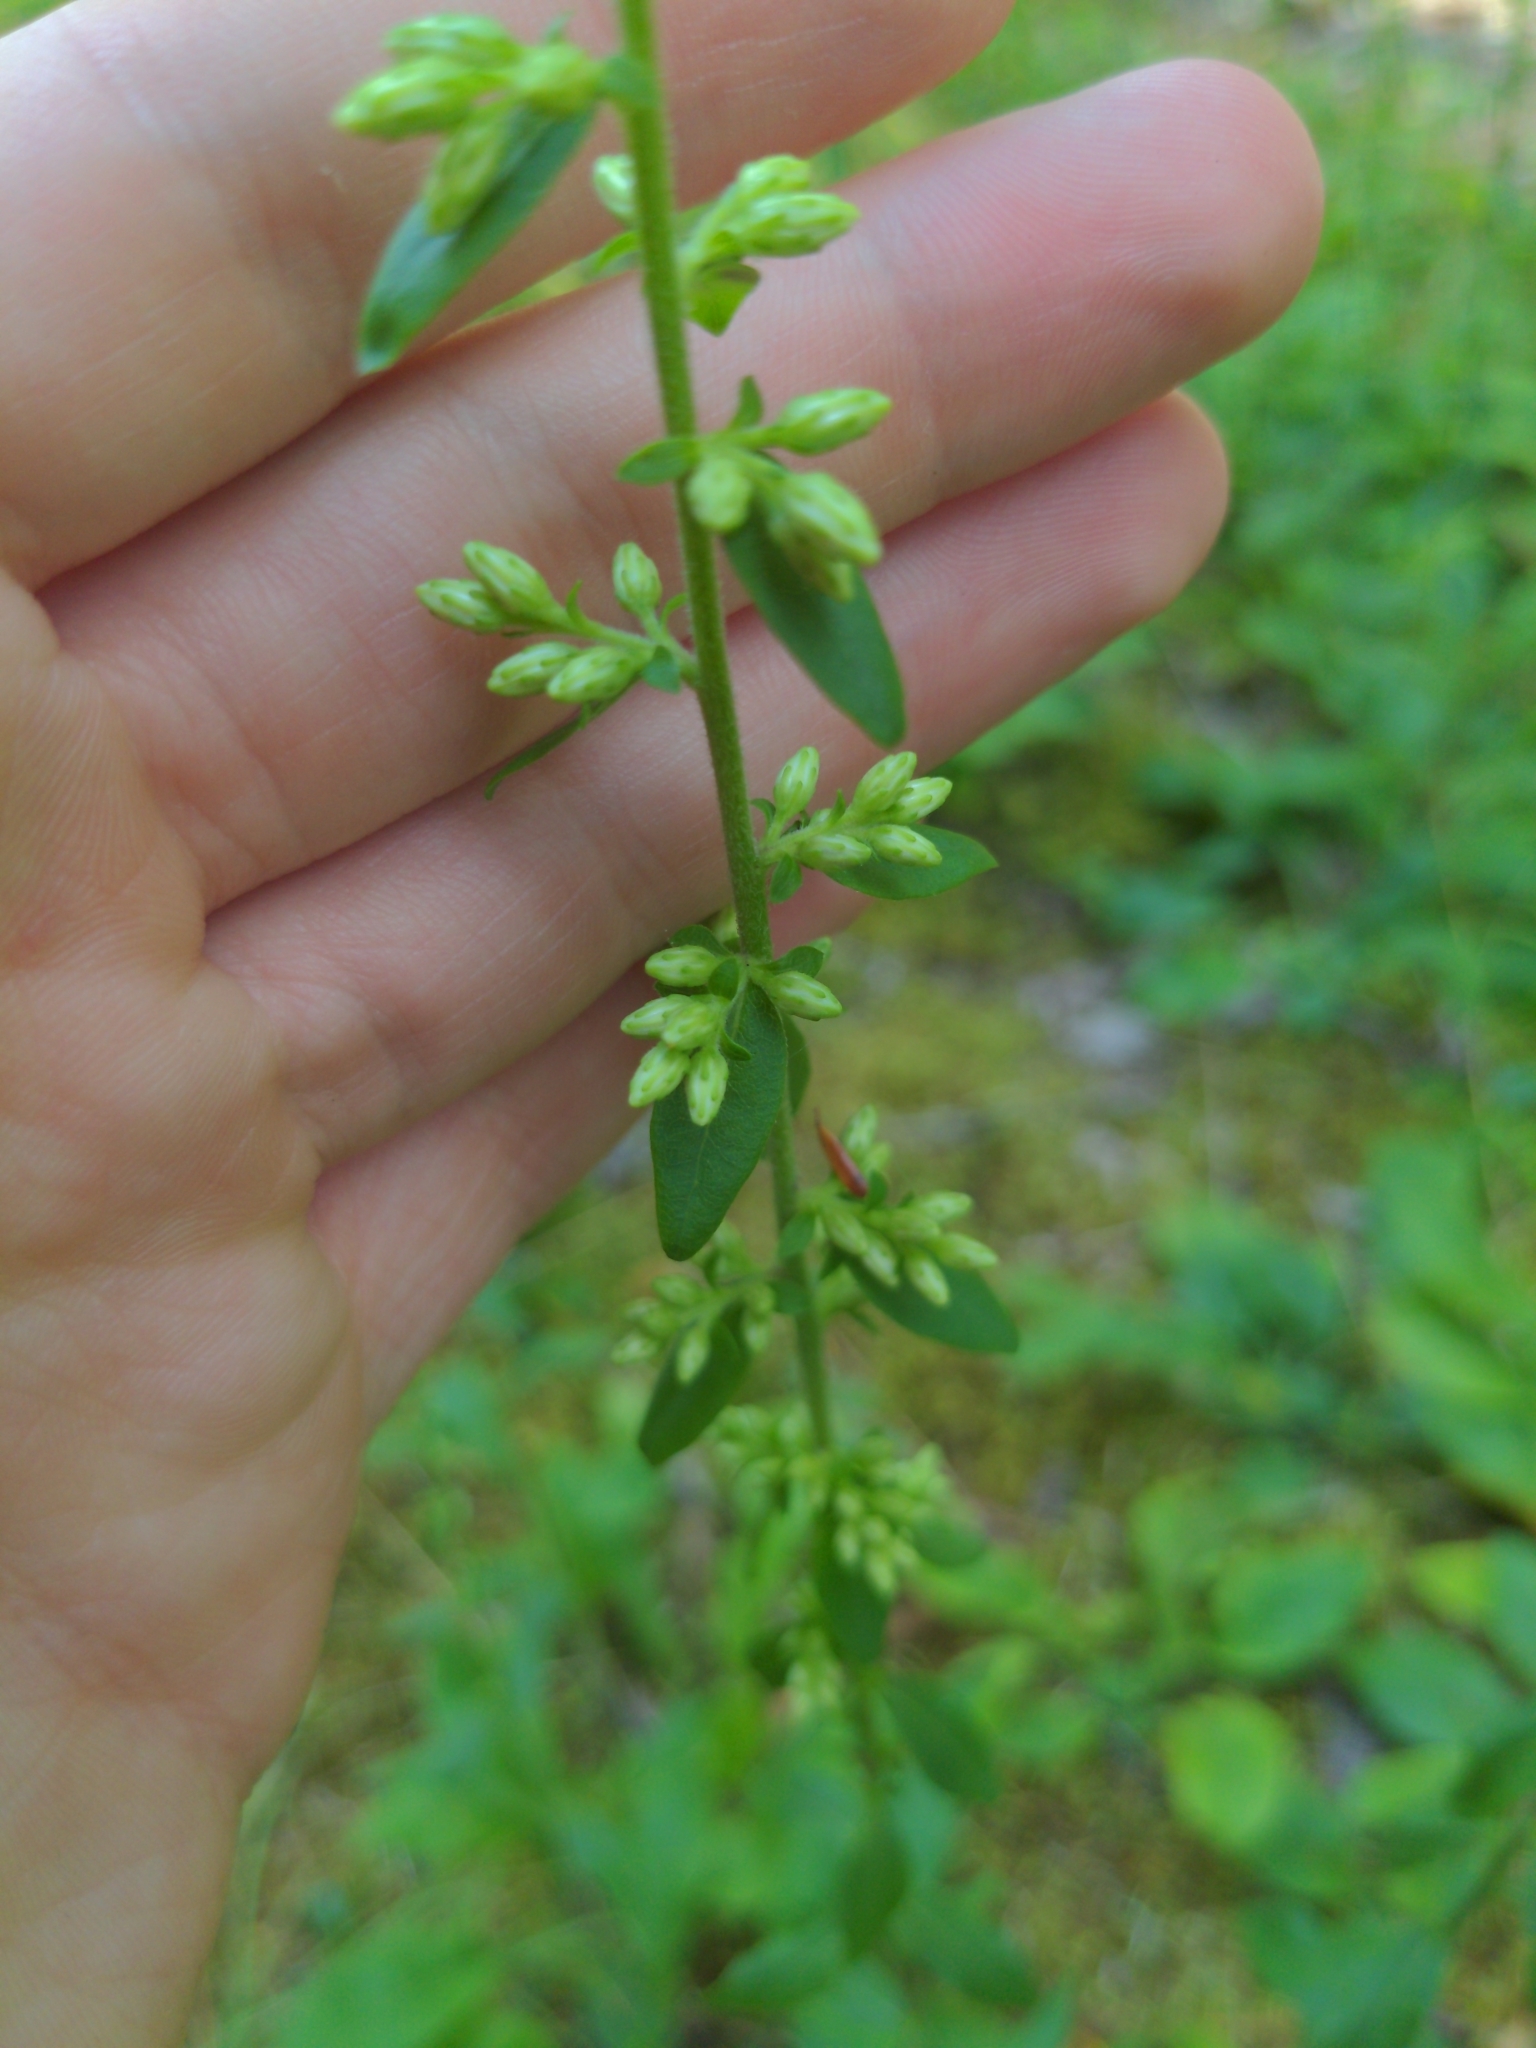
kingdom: Plantae
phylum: Tracheophyta
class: Magnoliopsida
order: Asterales
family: Asteraceae
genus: Solidago
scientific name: Solidago bicolor
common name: Silverrod
